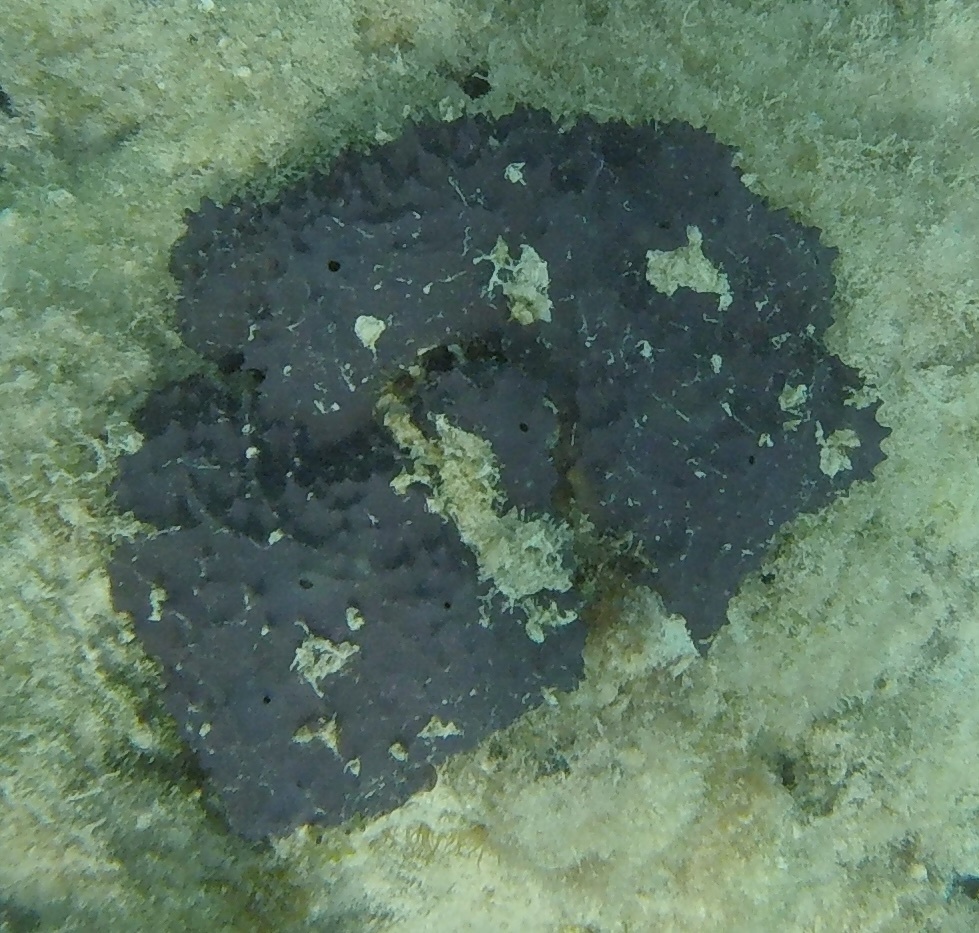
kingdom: Animalia
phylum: Porifera
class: Demospongiae
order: Verongiida
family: Aplysinidae
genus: Aiolochroia
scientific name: Aiolochroia crassa
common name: Branching tube sponge
